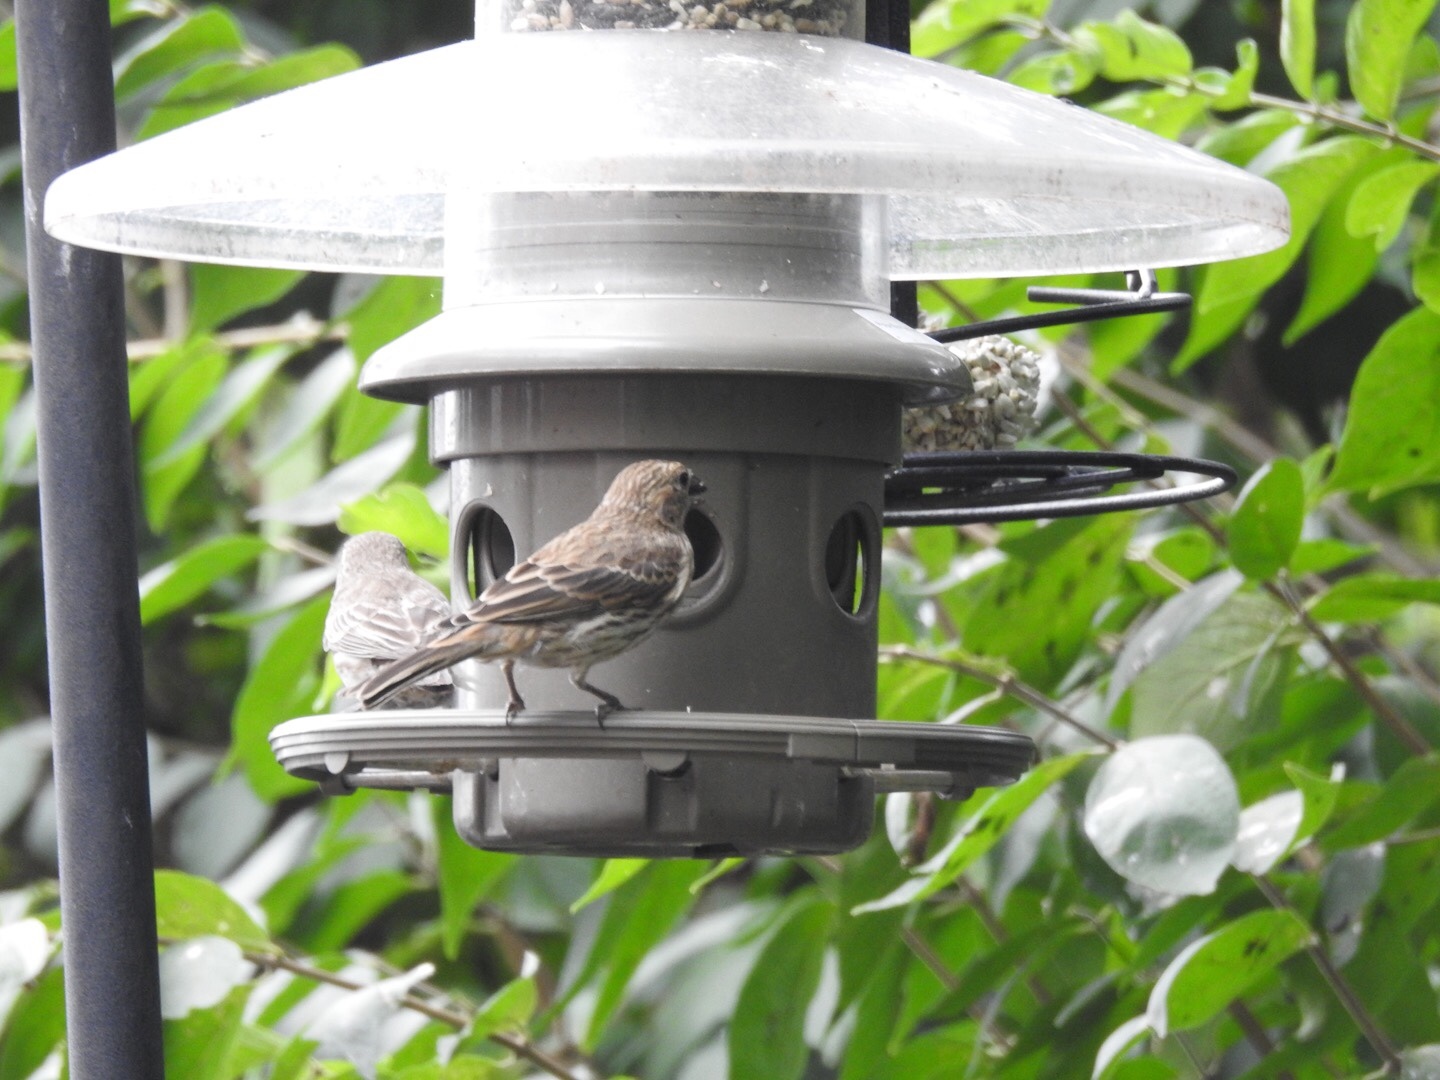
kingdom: Animalia
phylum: Chordata
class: Aves
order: Passeriformes
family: Fringillidae
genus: Haemorhous
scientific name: Haemorhous mexicanus
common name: House finch
